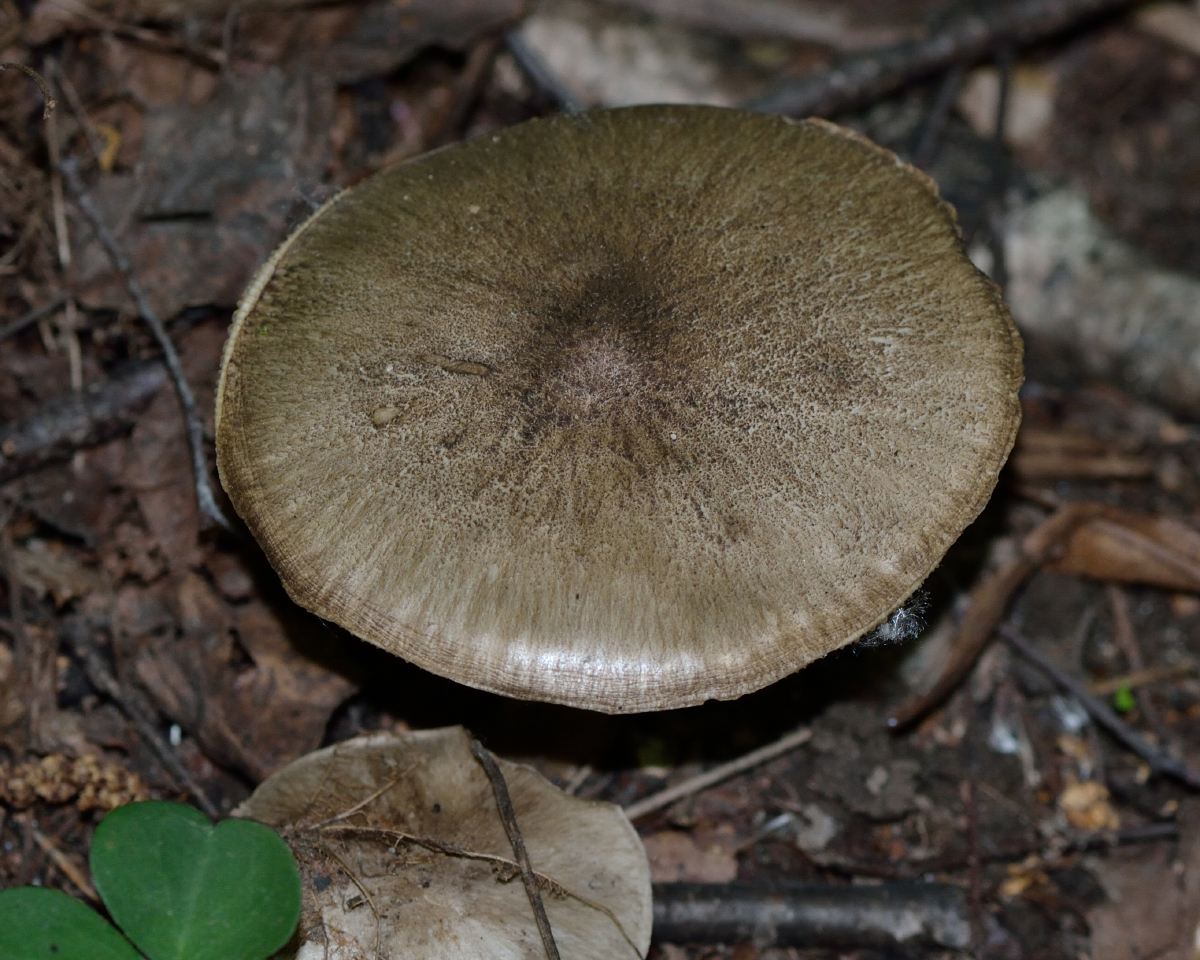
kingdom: Fungi
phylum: Basidiomycota
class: Agaricomycetes
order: Agaricales
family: Tricholomataceae
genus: Megacollybia
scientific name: Megacollybia platyphylla
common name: Whitelaced shank
